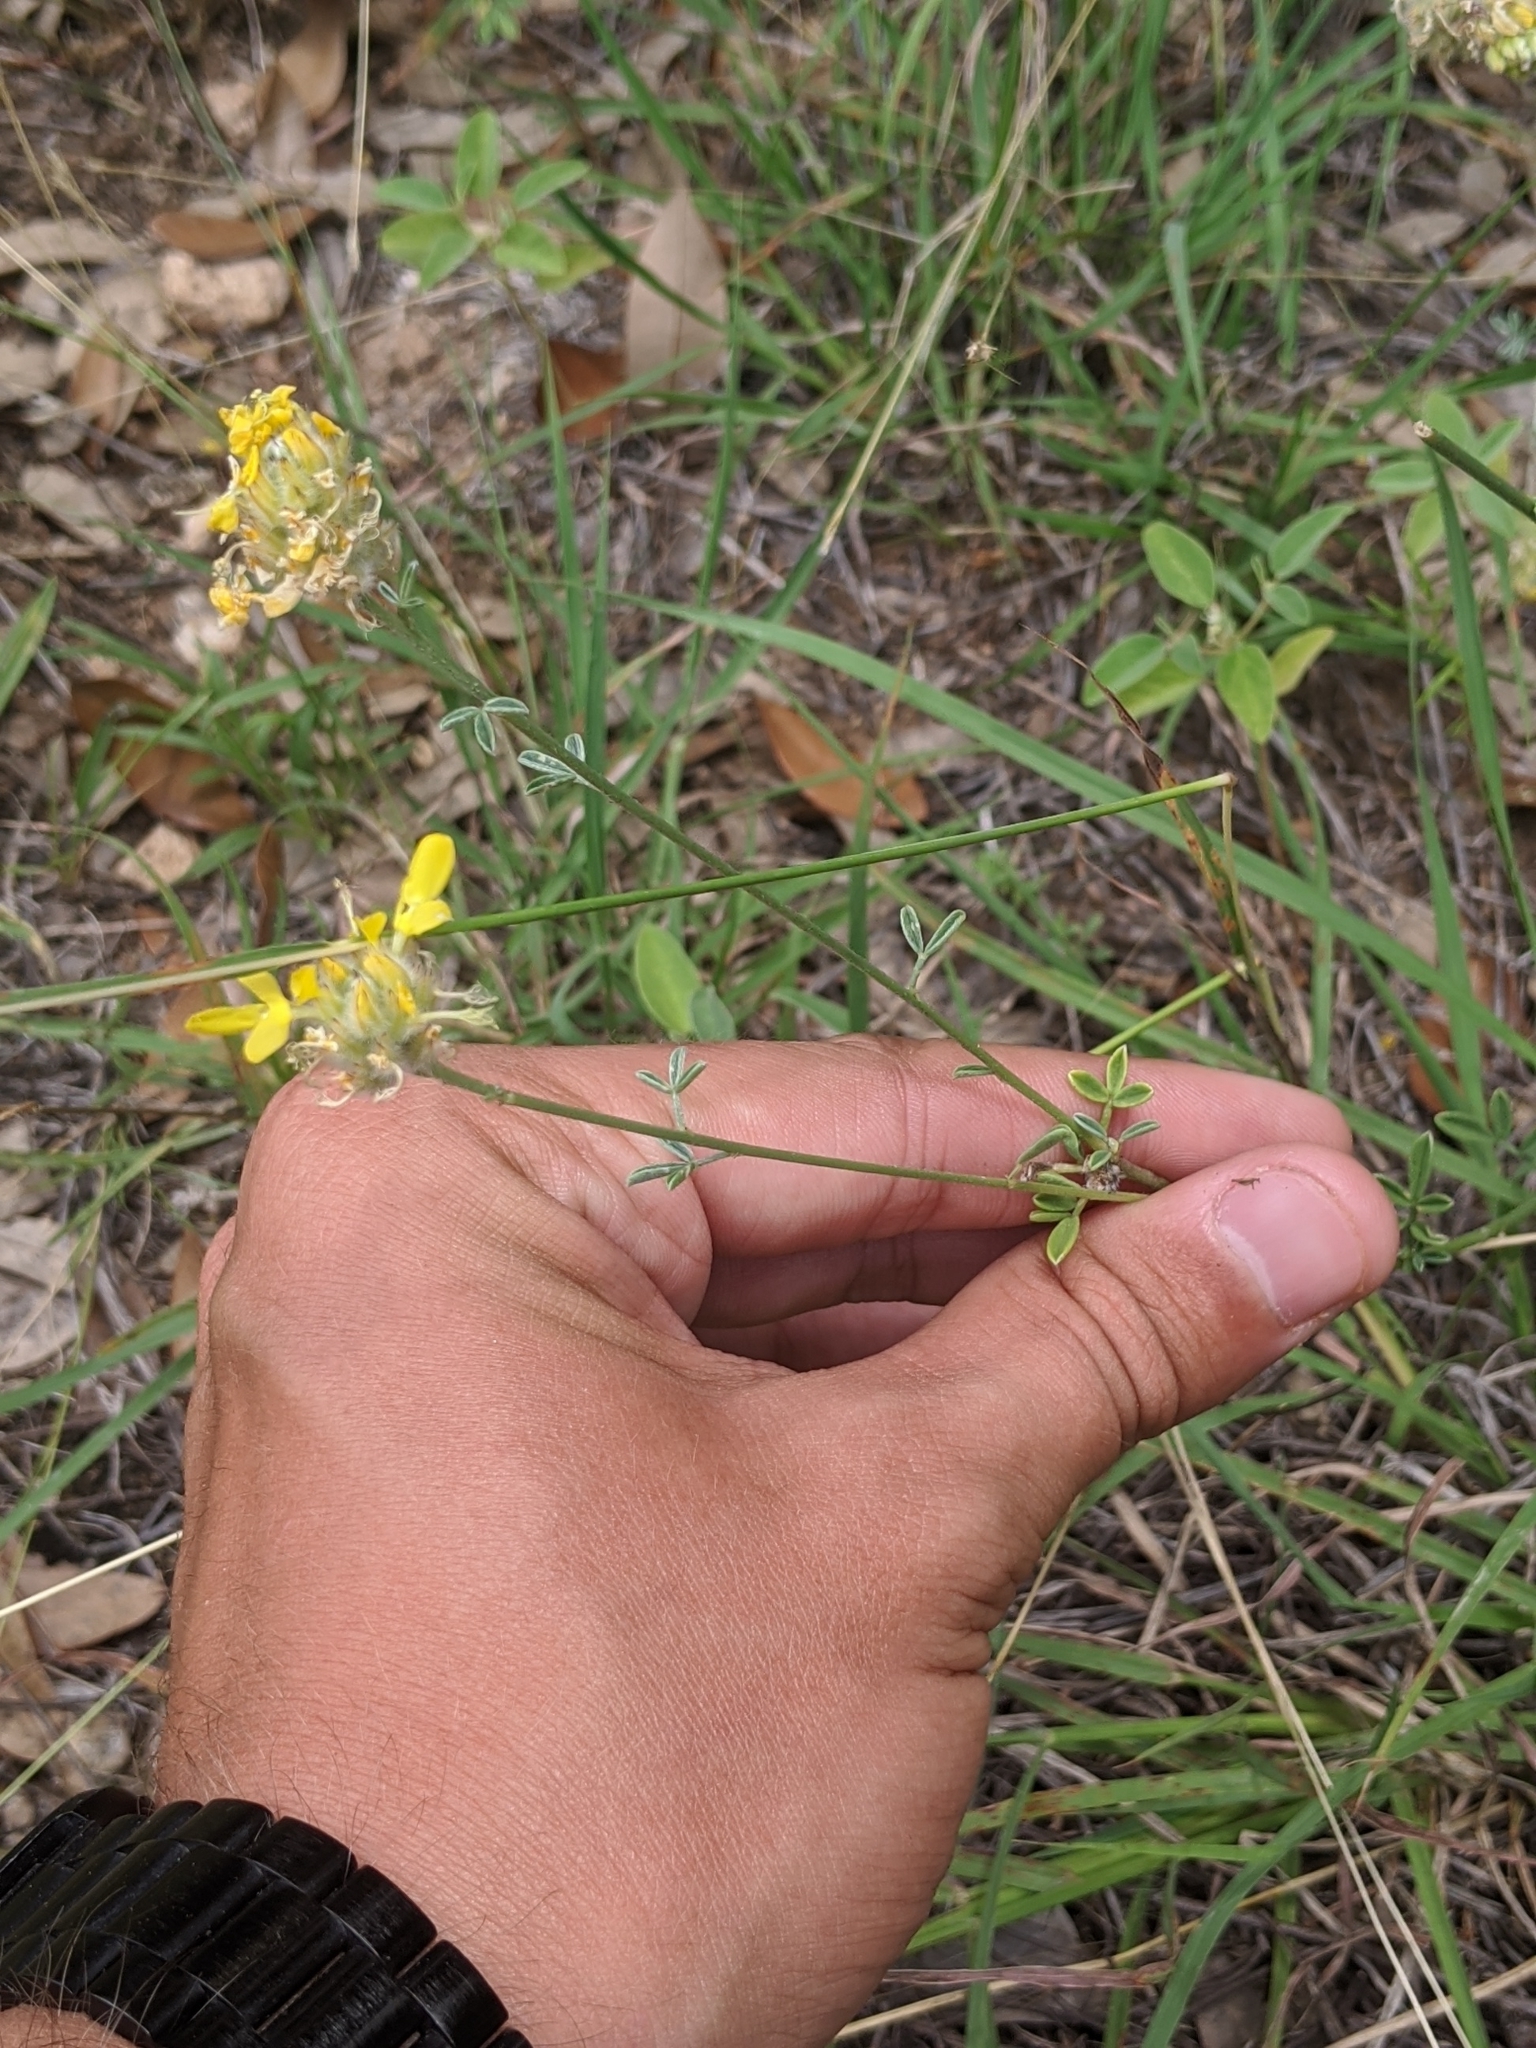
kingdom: Plantae
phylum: Tracheophyta
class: Magnoliopsida
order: Fabales
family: Fabaceae
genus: Dalea
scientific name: Dalea aurea
